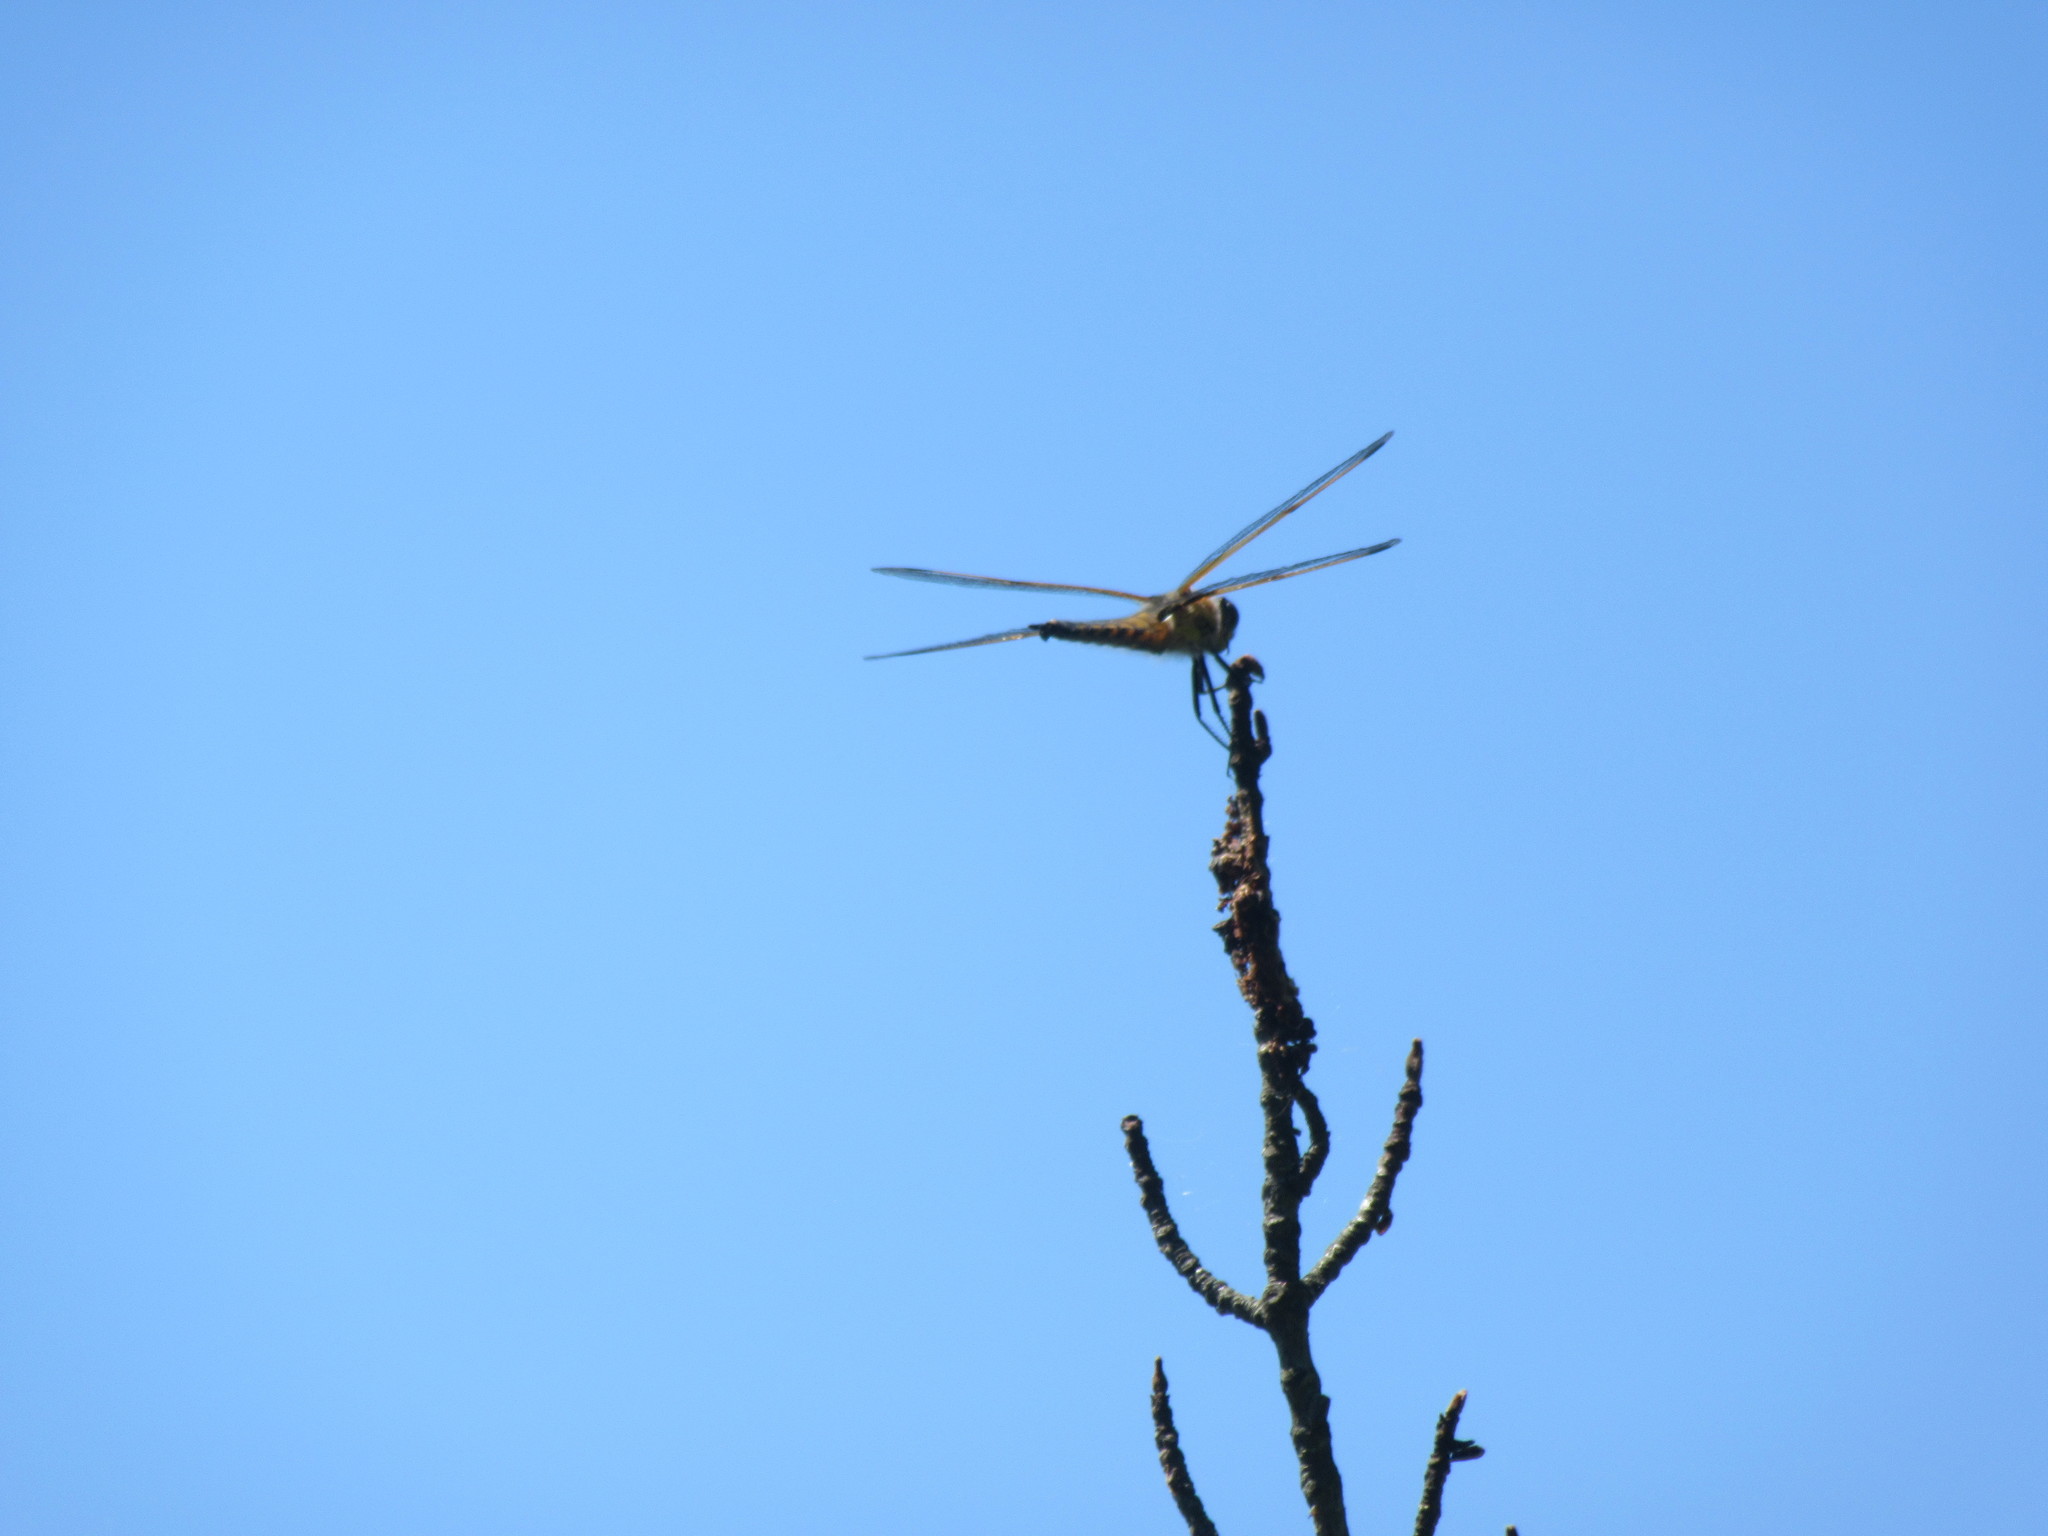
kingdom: Animalia
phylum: Arthropoda
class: Insecta
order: Odonata
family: Libellulidae
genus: Libellula
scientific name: Libellula quadrimaculata
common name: Four-spotted chaser
